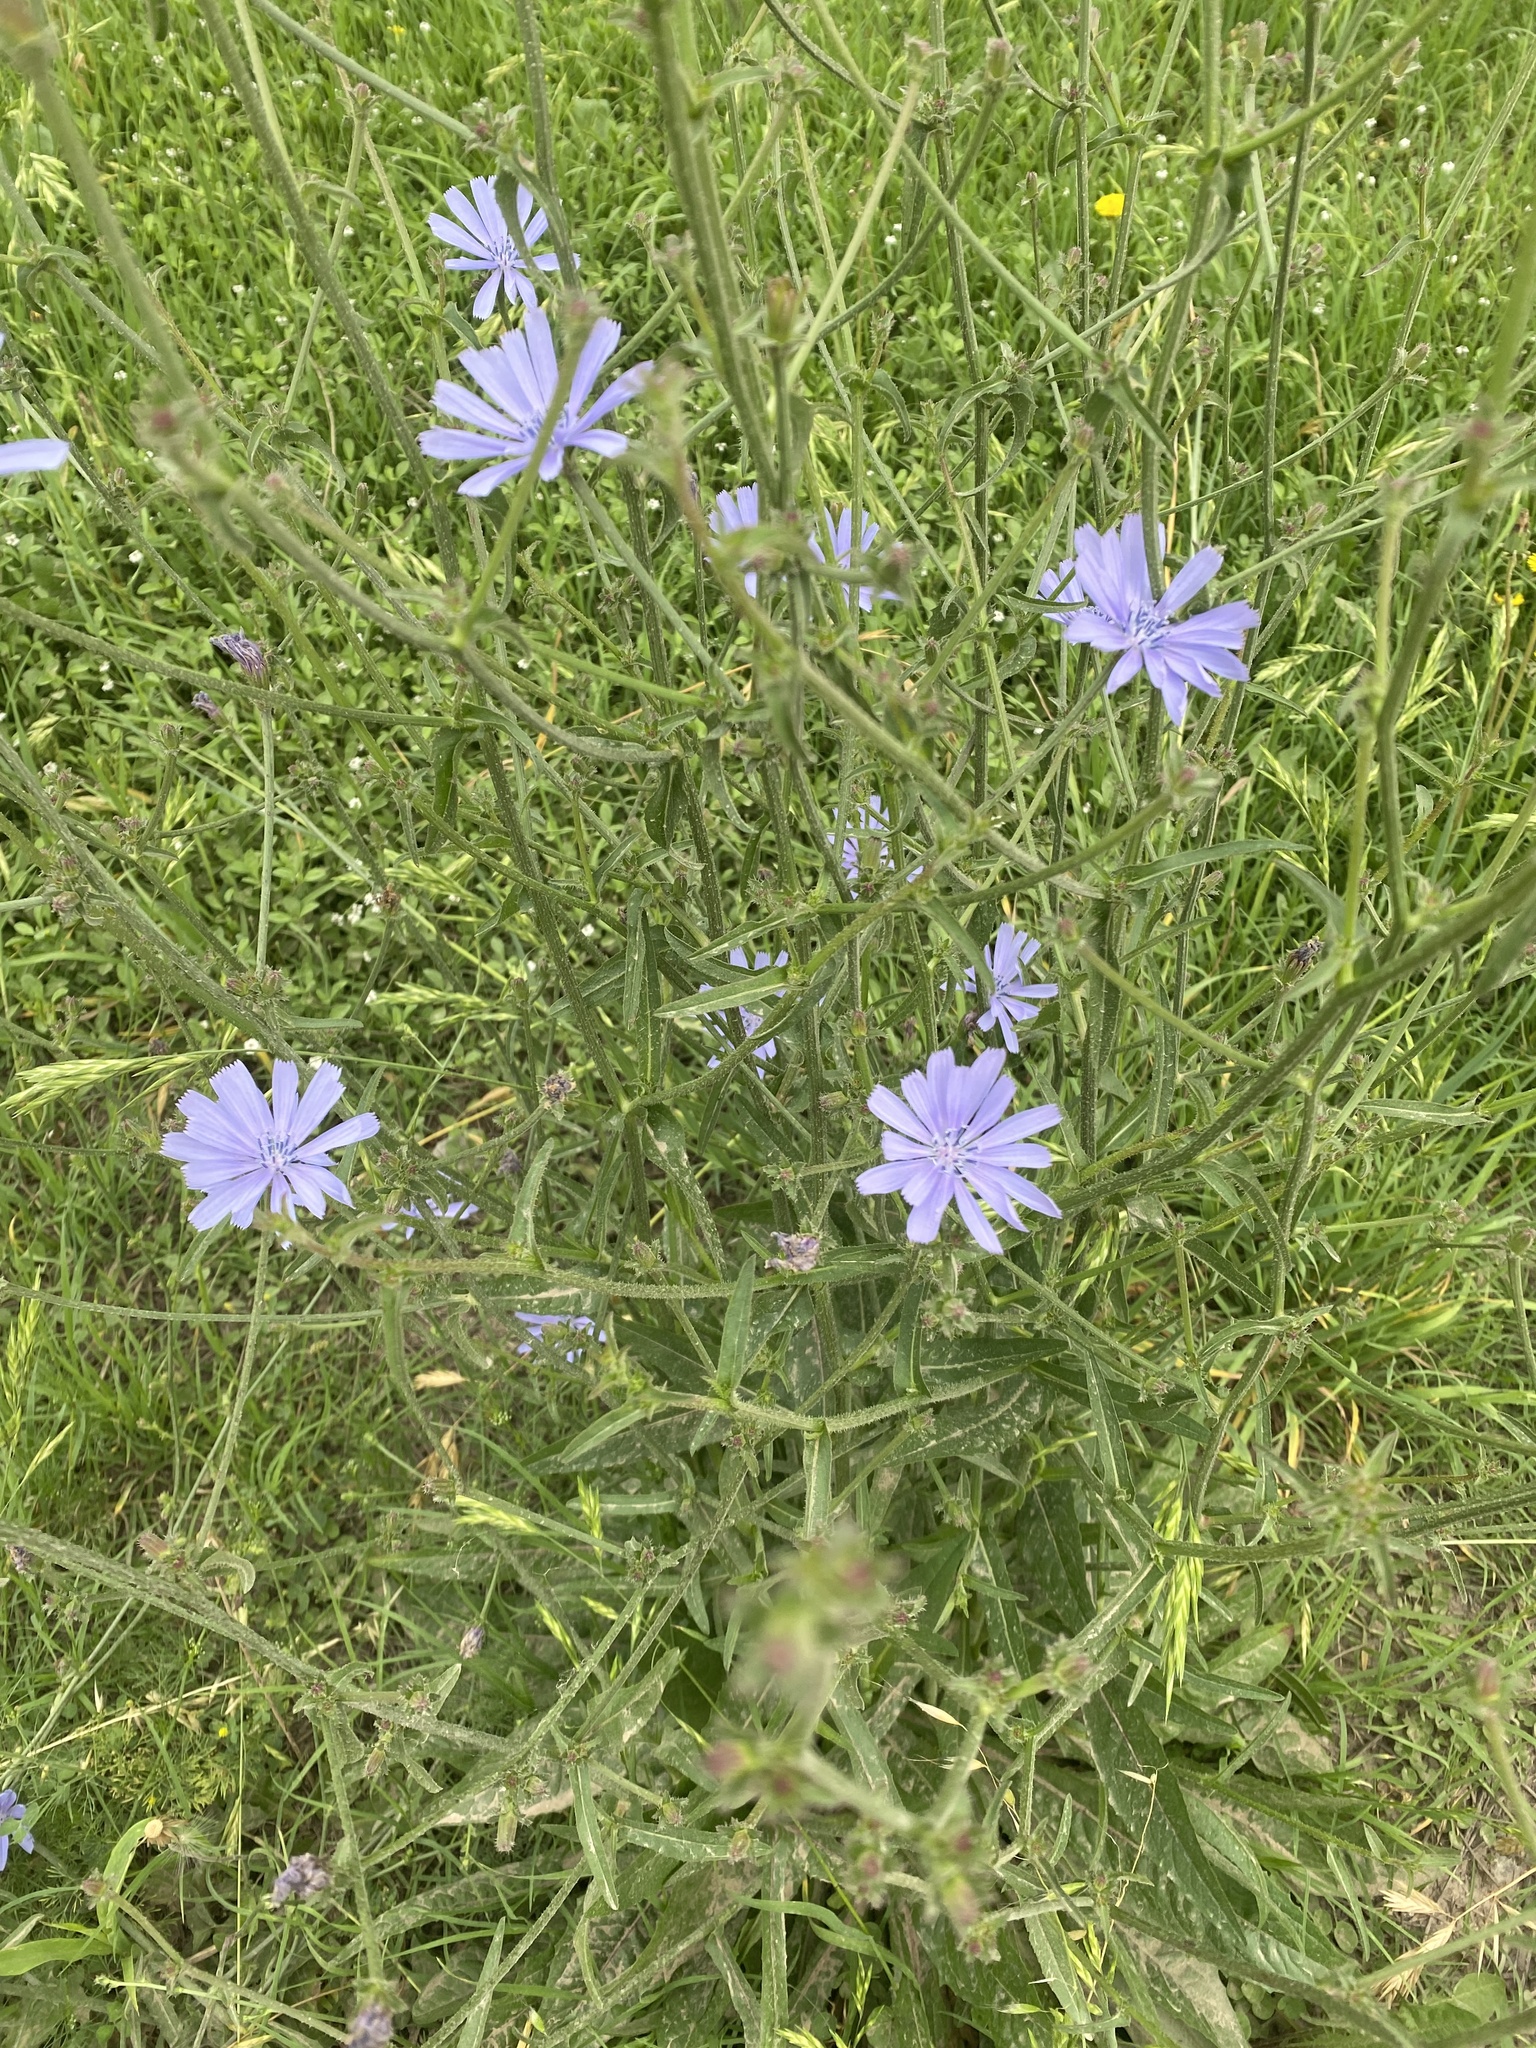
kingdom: Plantae
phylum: Tracheophyta
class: Magnoliopsida
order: Asterales
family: Asteraceae
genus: Cichorium
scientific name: Cichorium intybus
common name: Chicory
